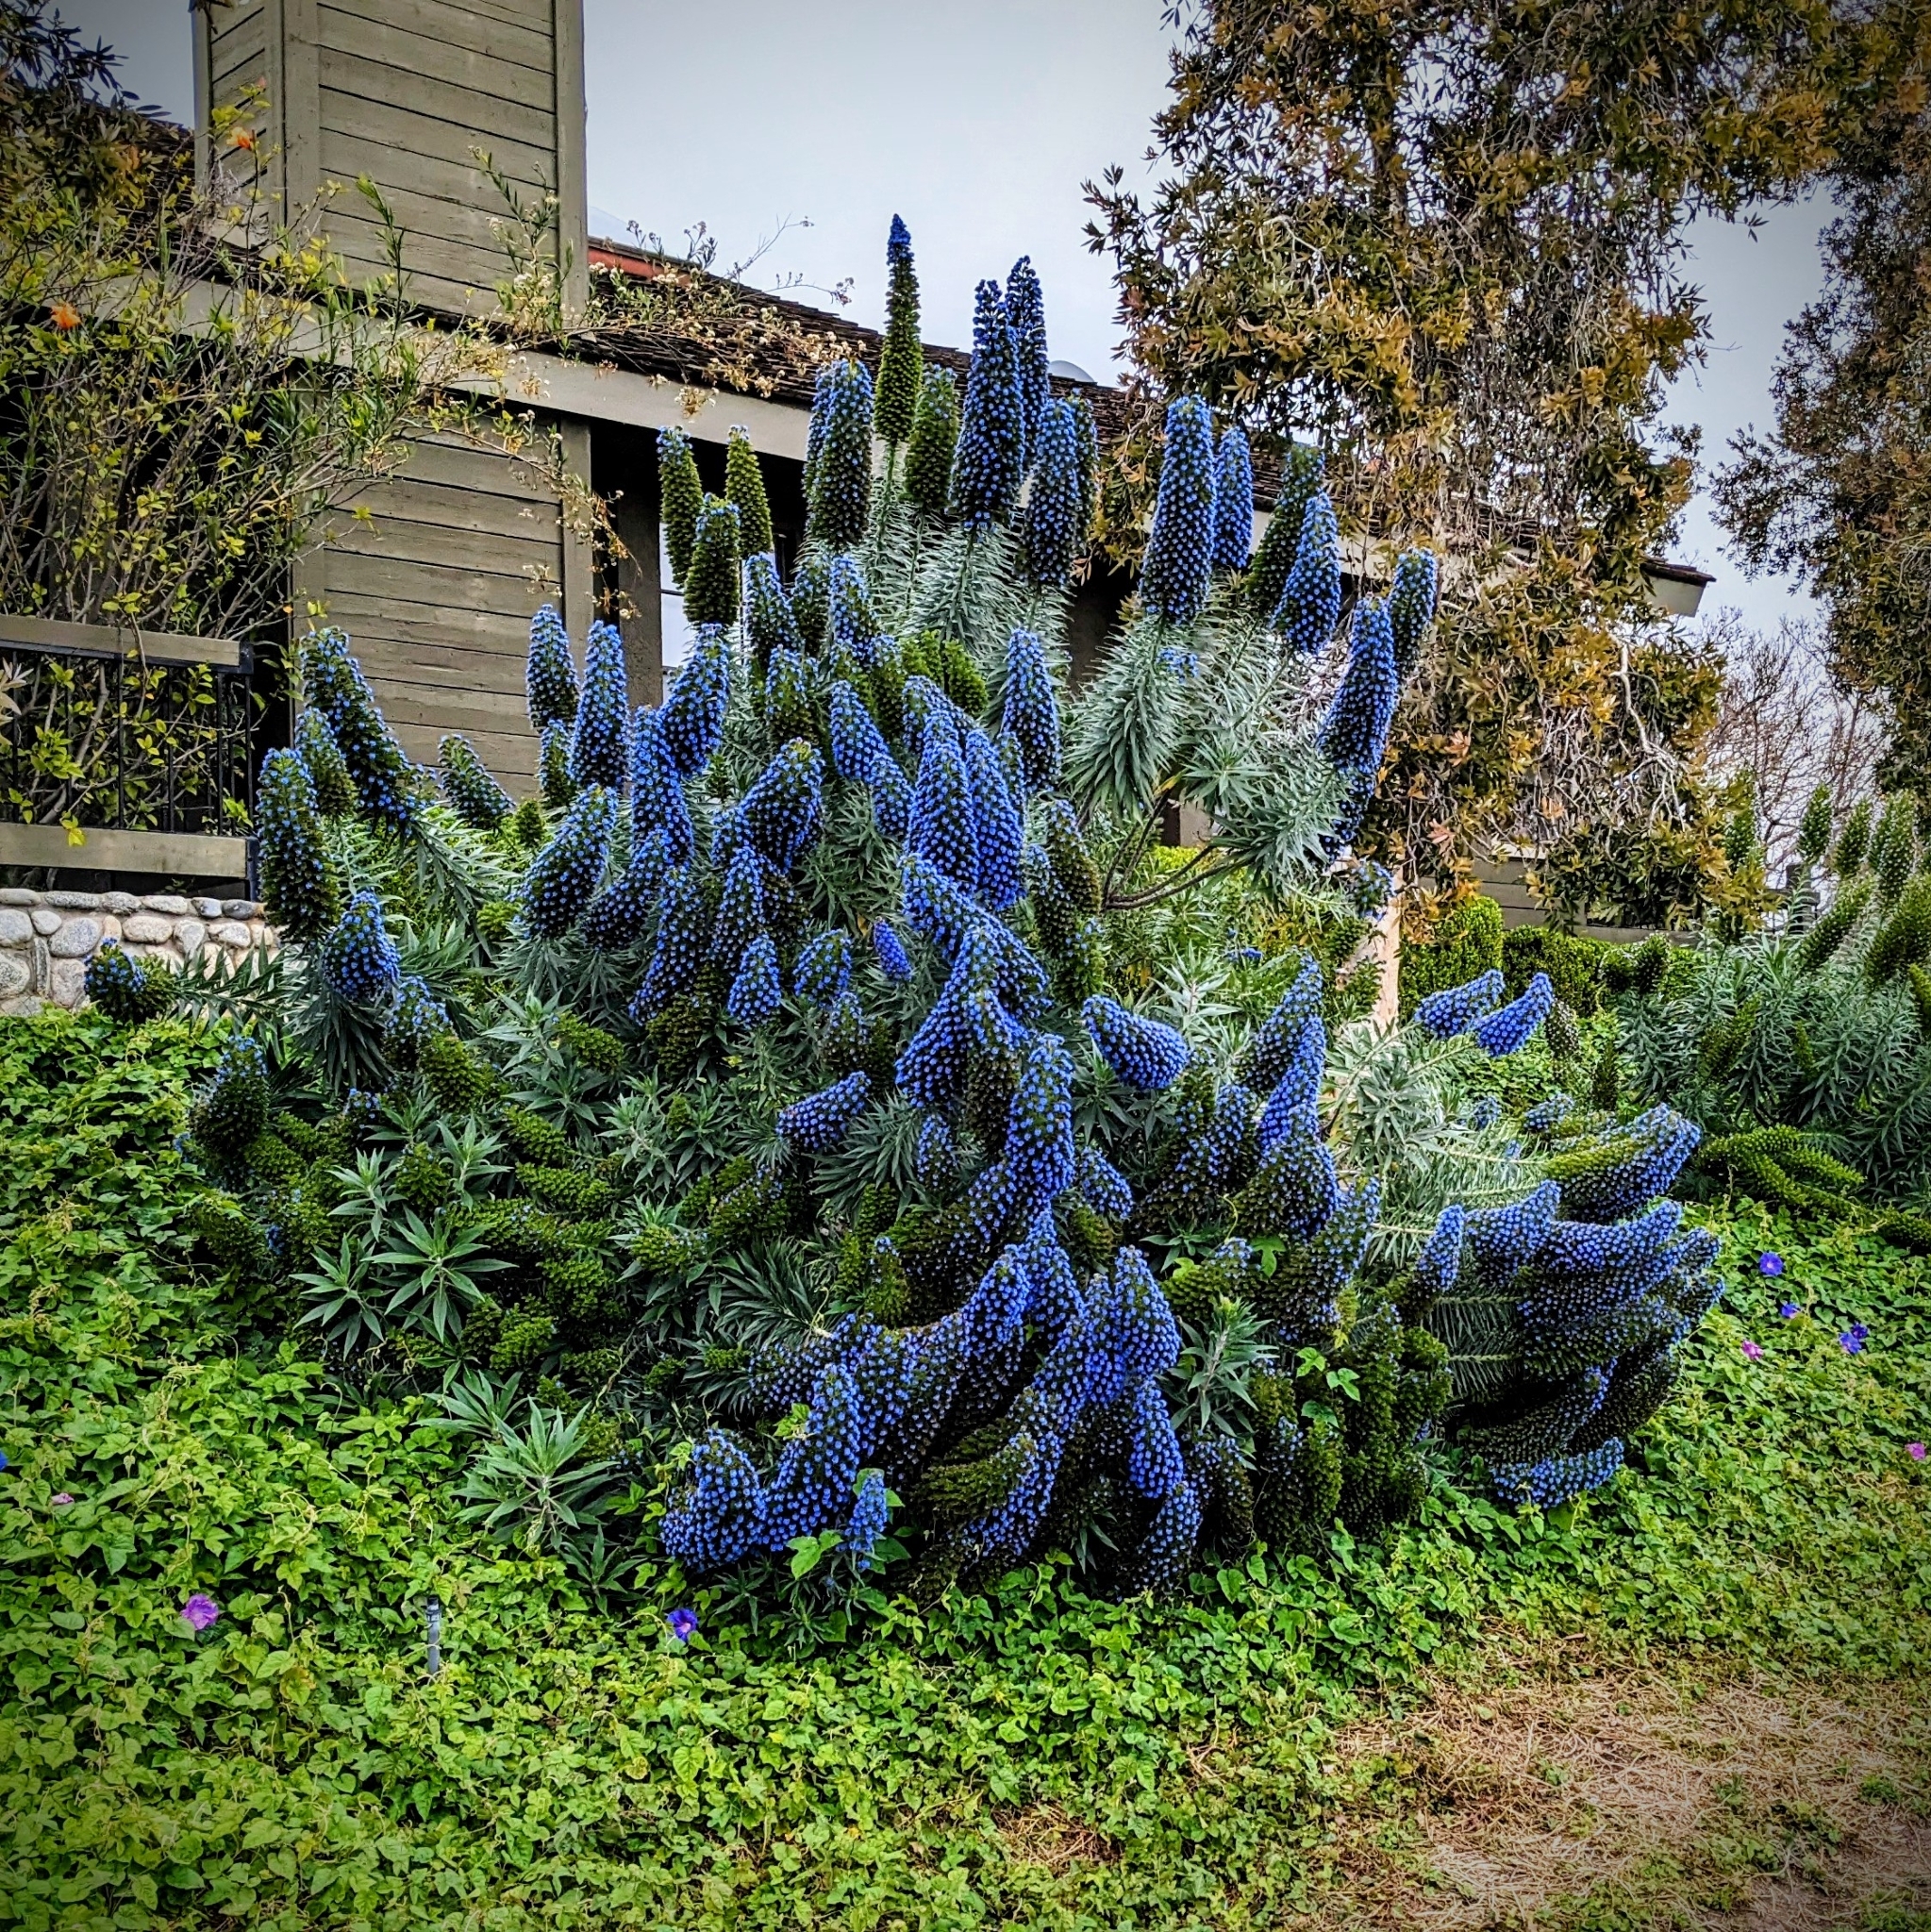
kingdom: Plantae
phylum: Tracheophyta
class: Magnoliopsida
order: Boraginales
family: Boraginaceae
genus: Echium
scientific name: Echium candicans
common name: Pride of madeira
